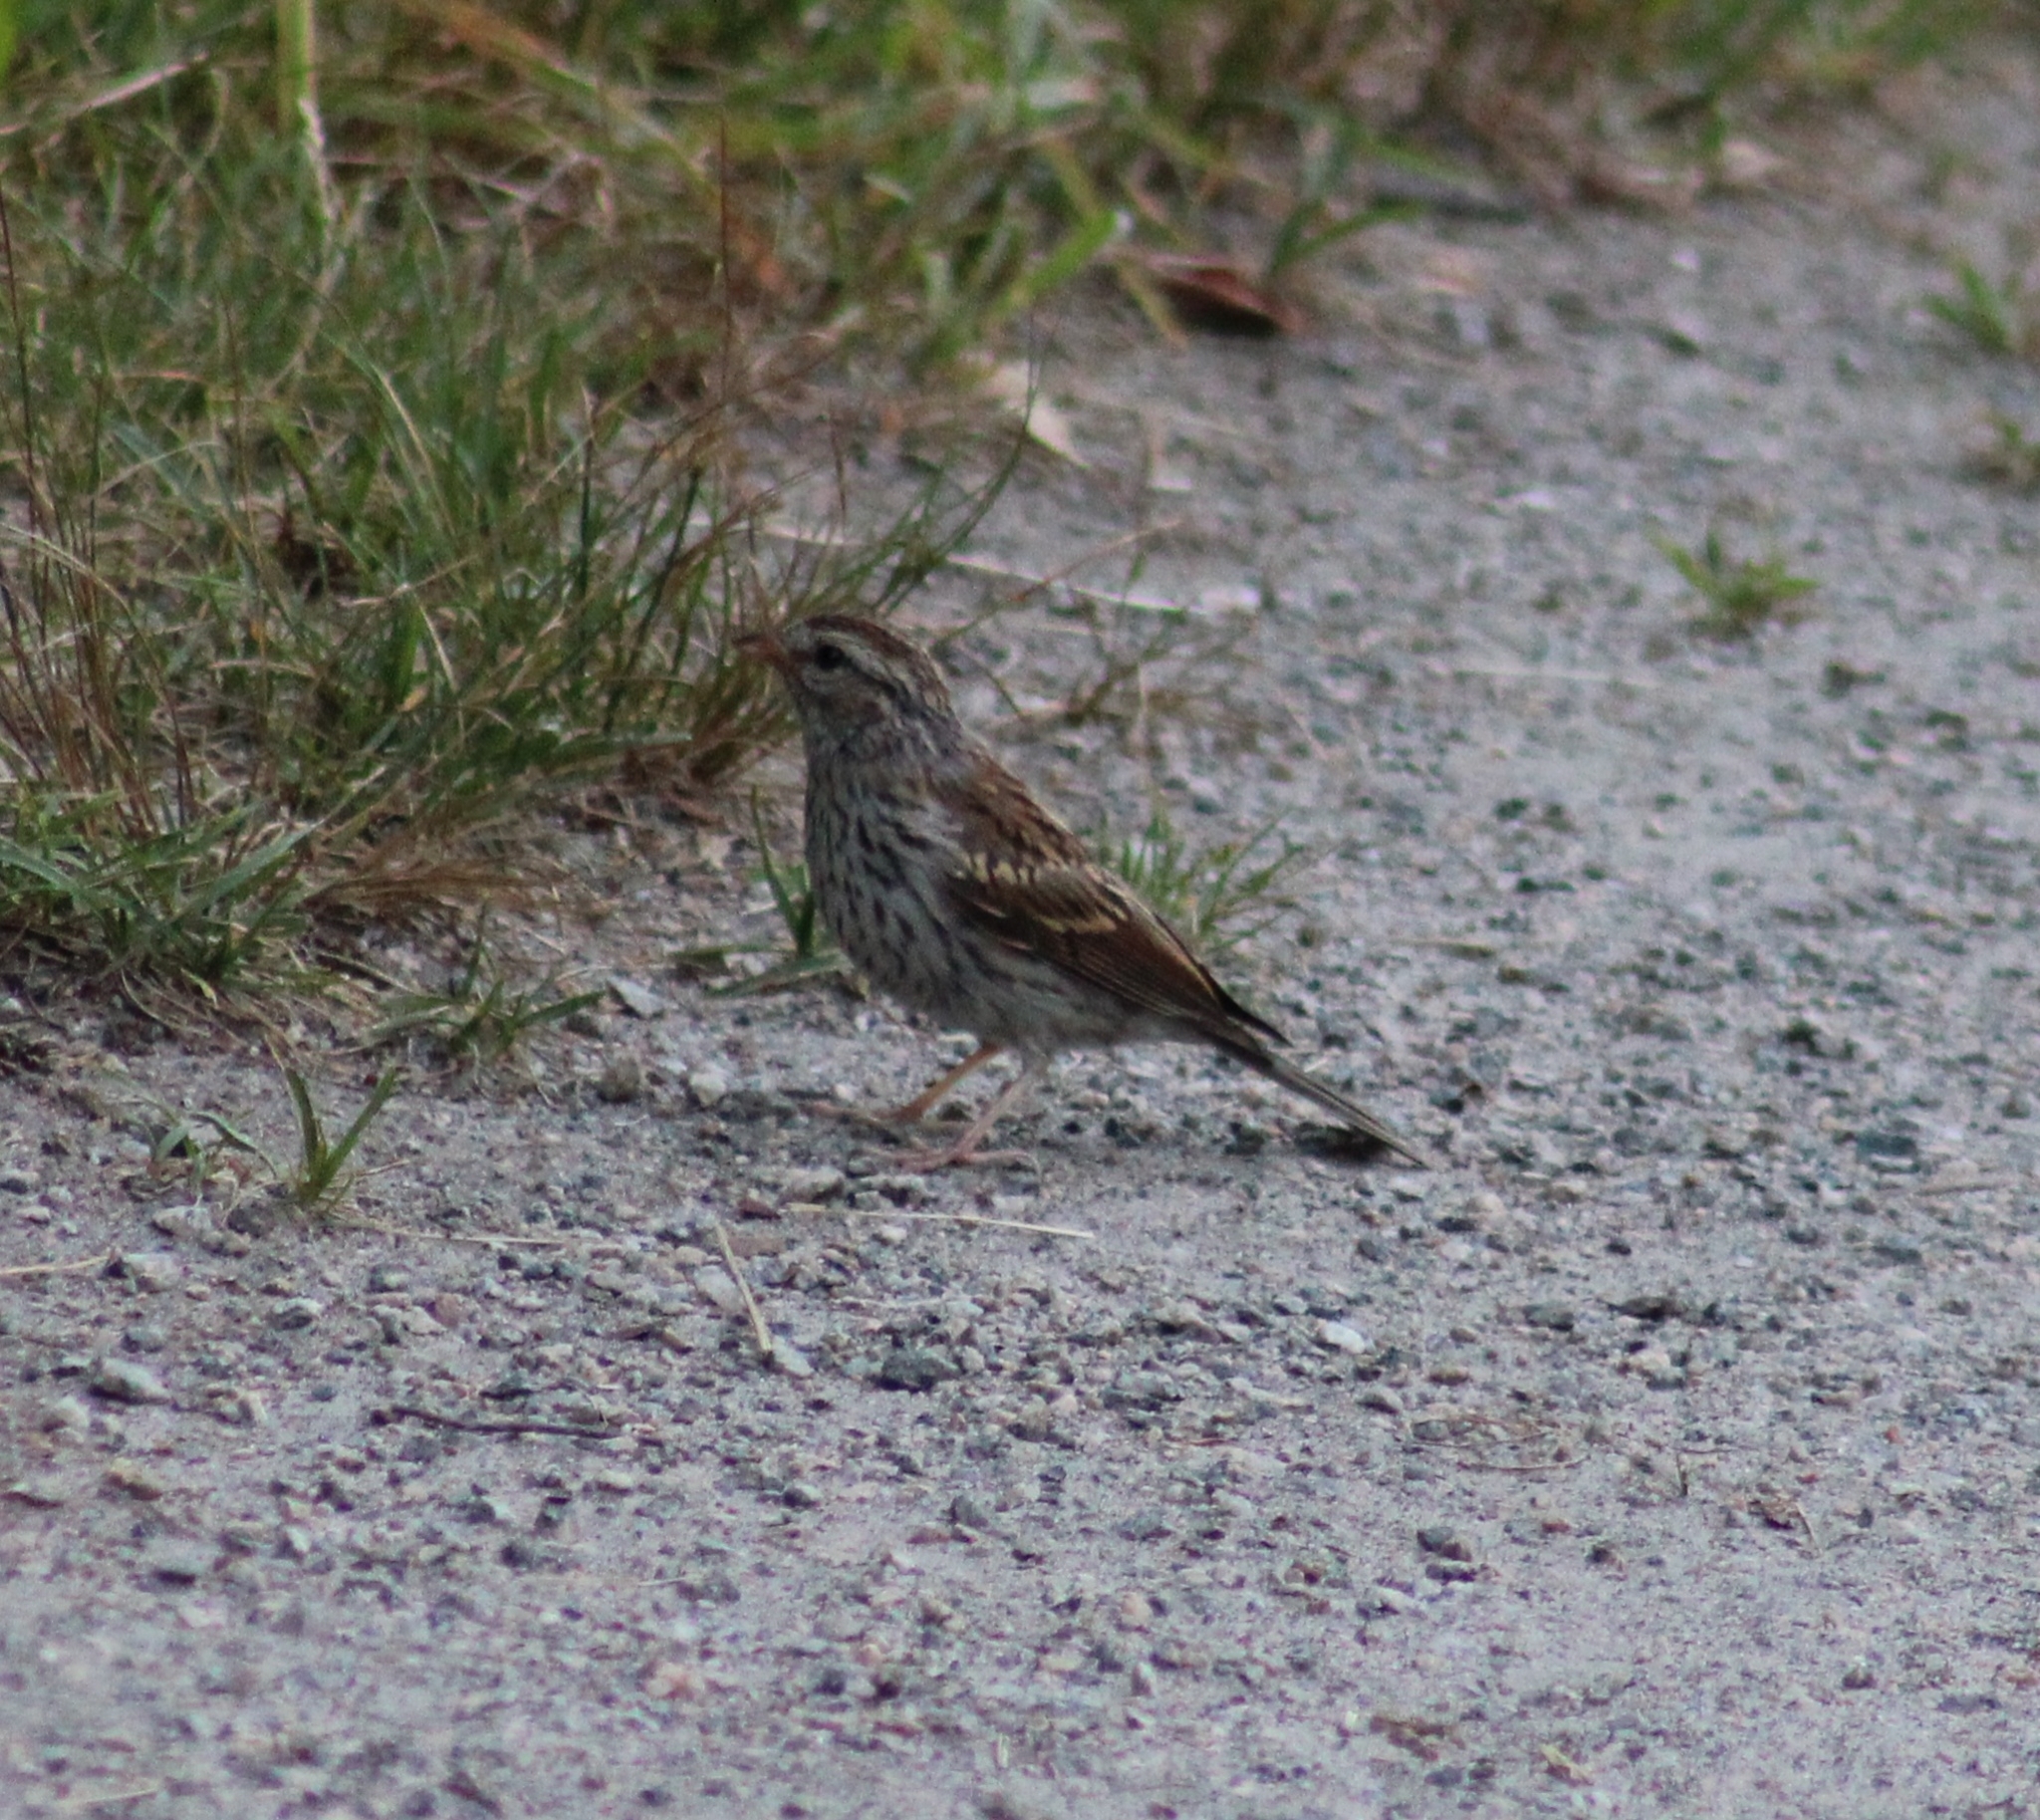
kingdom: Animalia
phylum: Chordata
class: Aves
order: Passeriformes
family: Passerellidae
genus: Spizella
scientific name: Spizella passerina
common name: Chipping sparrow
